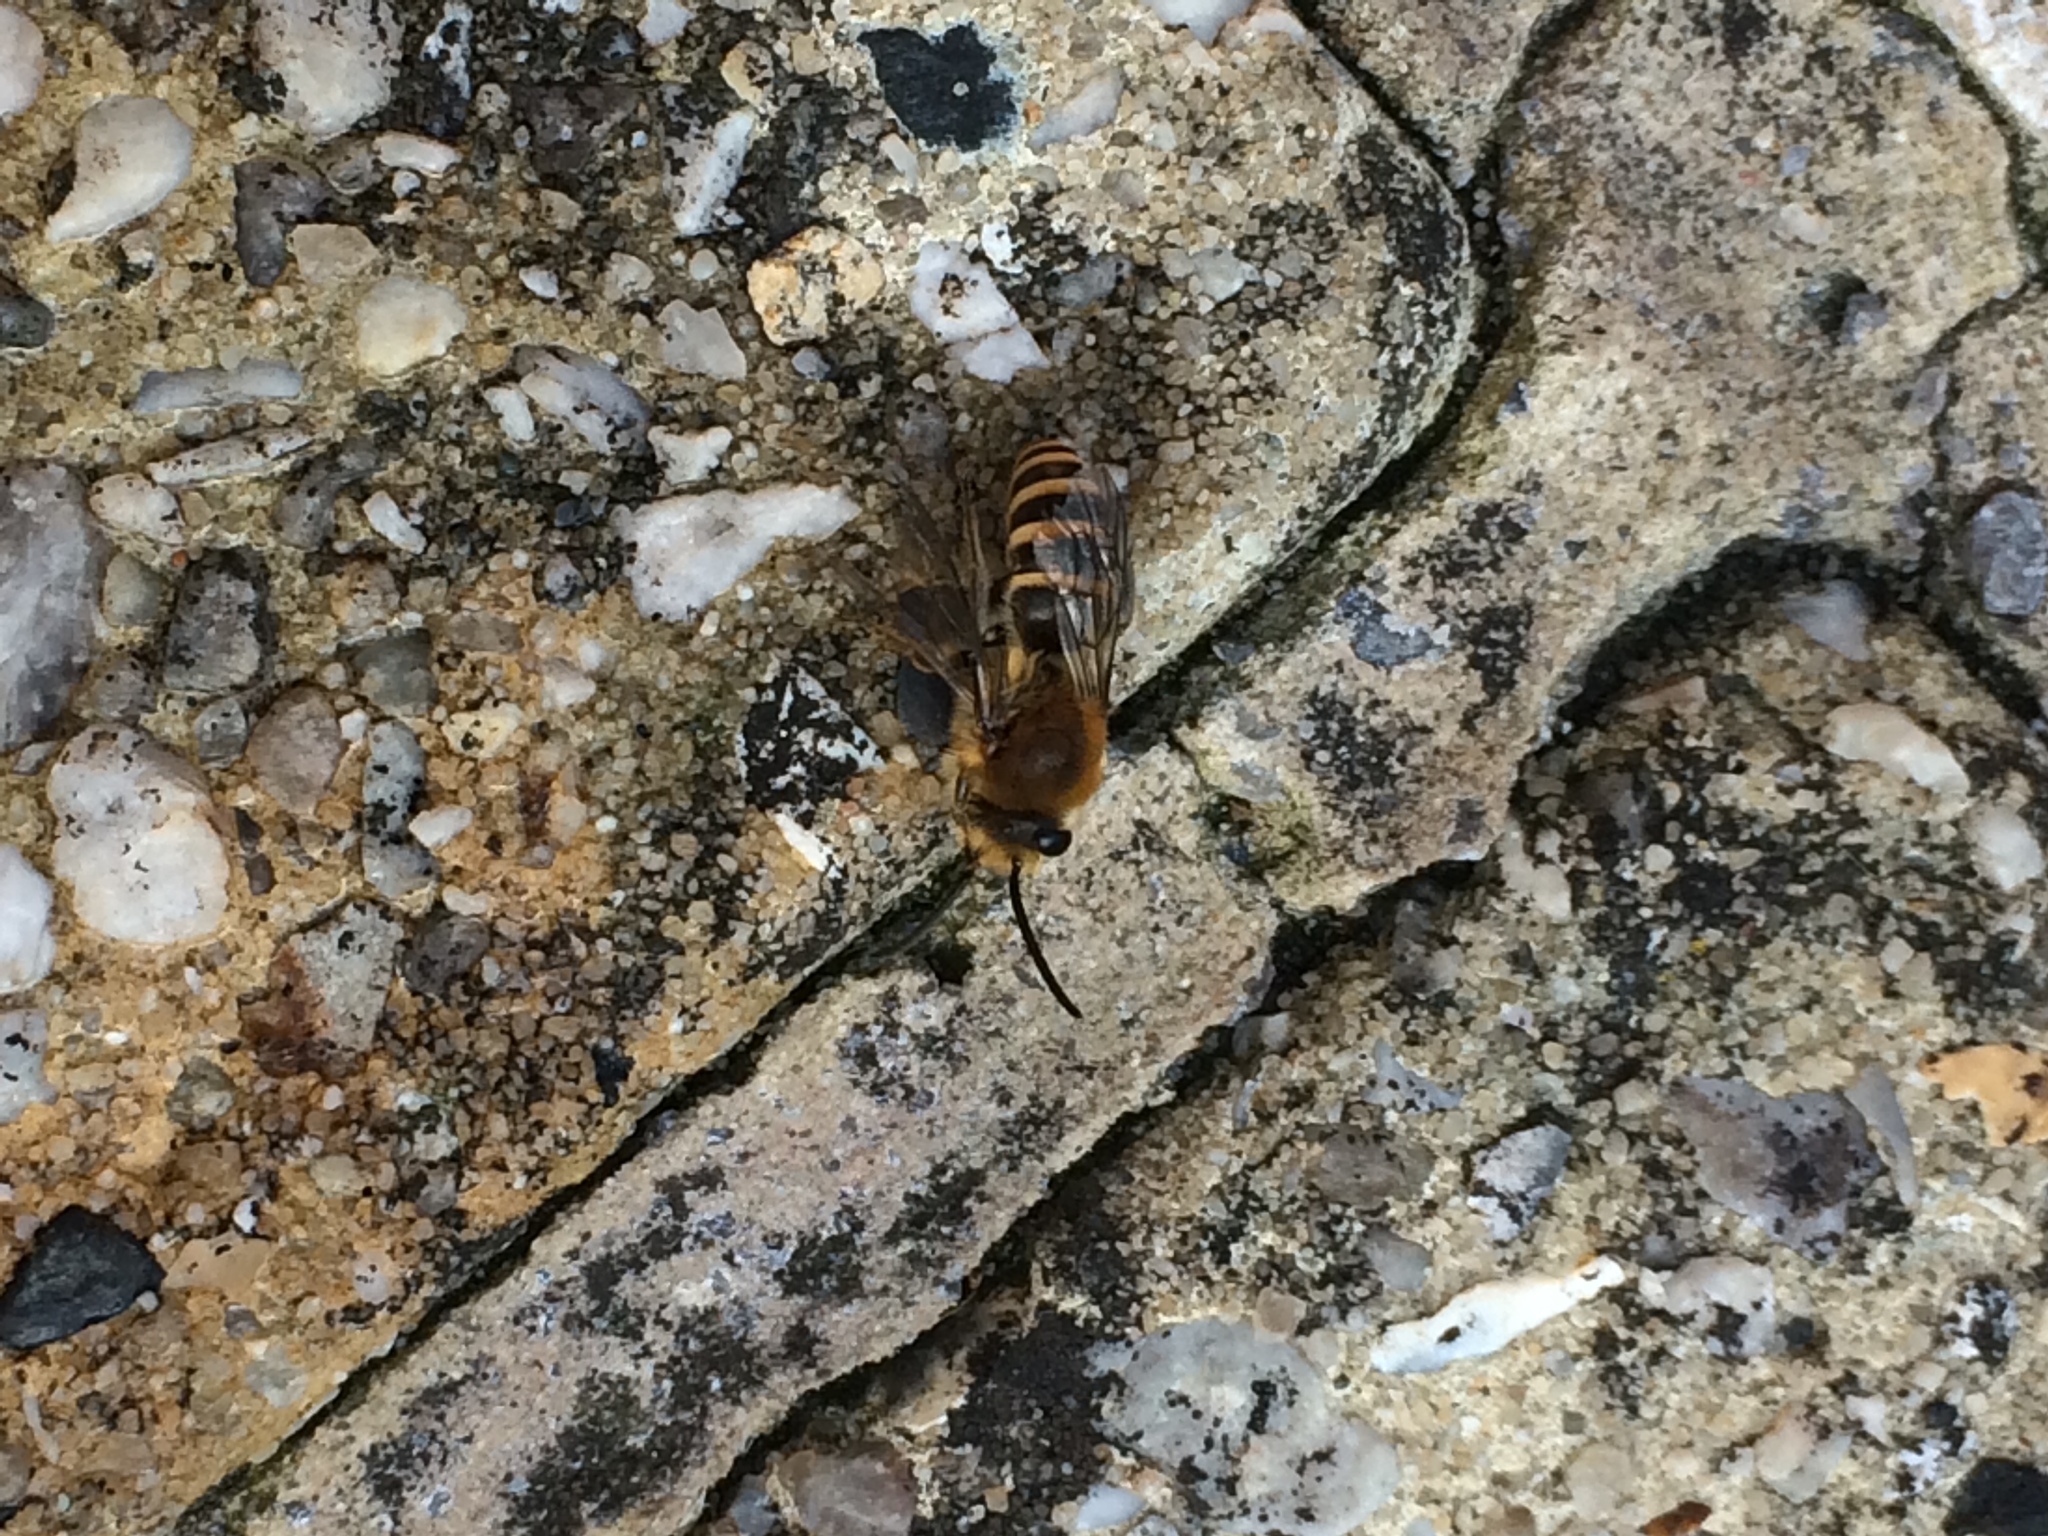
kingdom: Animalia
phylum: Arthropoda
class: Insecta
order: Hymenoptera
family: Colletidae
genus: Colletes
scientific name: Colletes hederae
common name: Ivy bee
